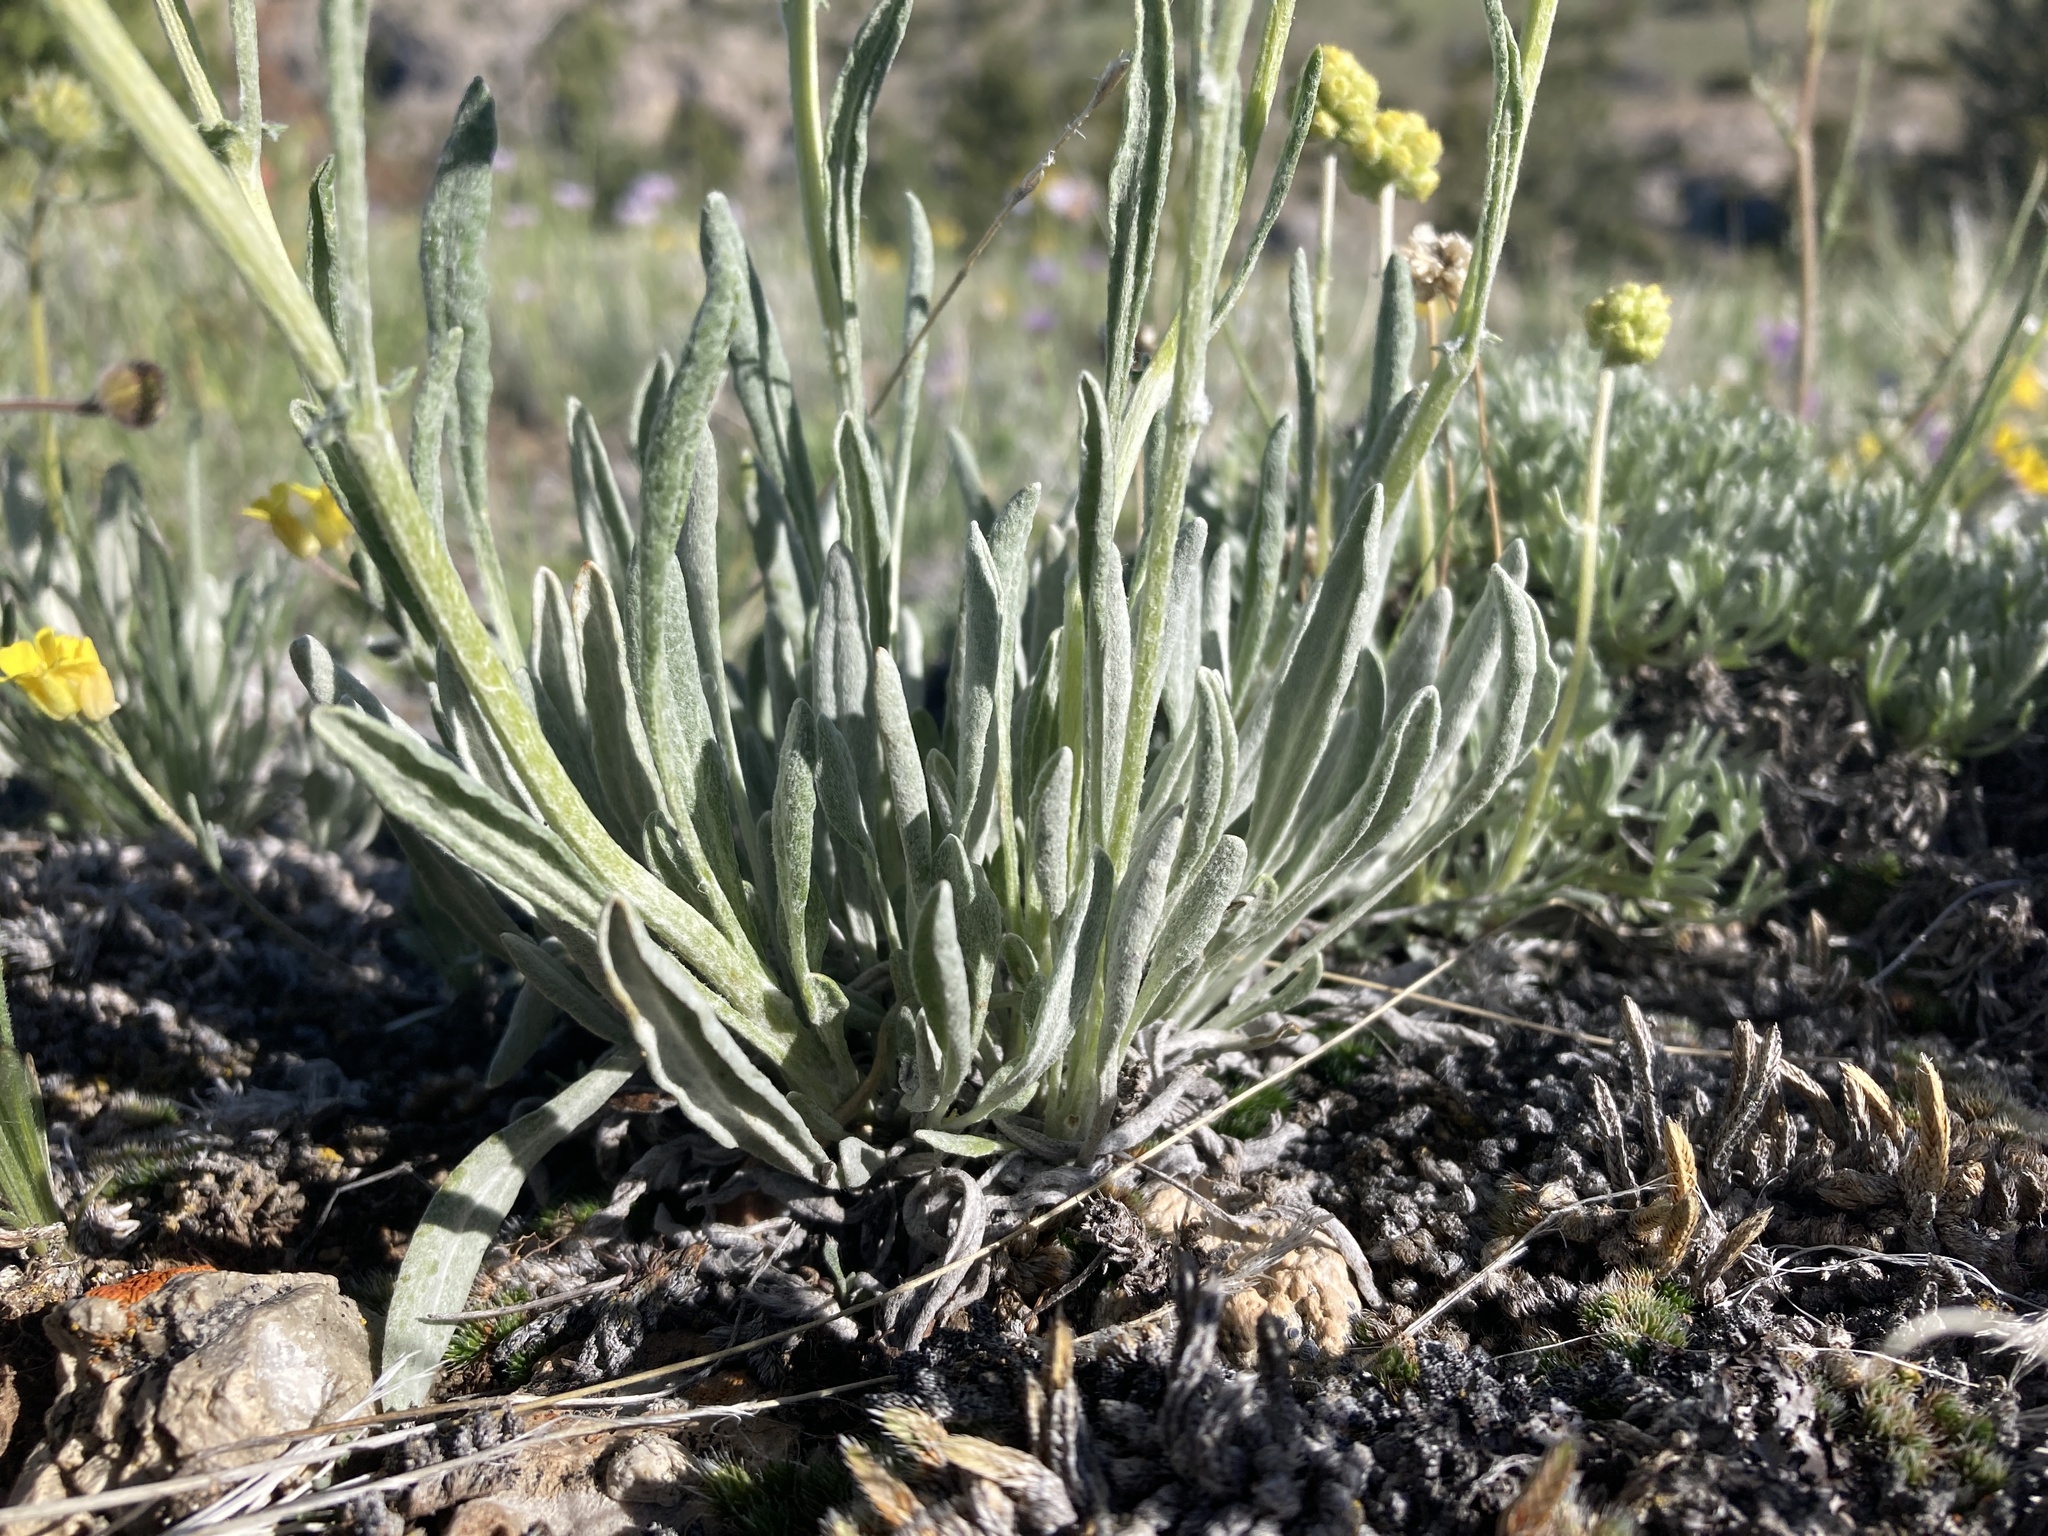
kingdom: Plantae
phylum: Tracheophyta
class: Magnoliopsida
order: Asterales
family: Asteraceae
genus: Packera
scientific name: Packera cana
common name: Woolly groundsel
